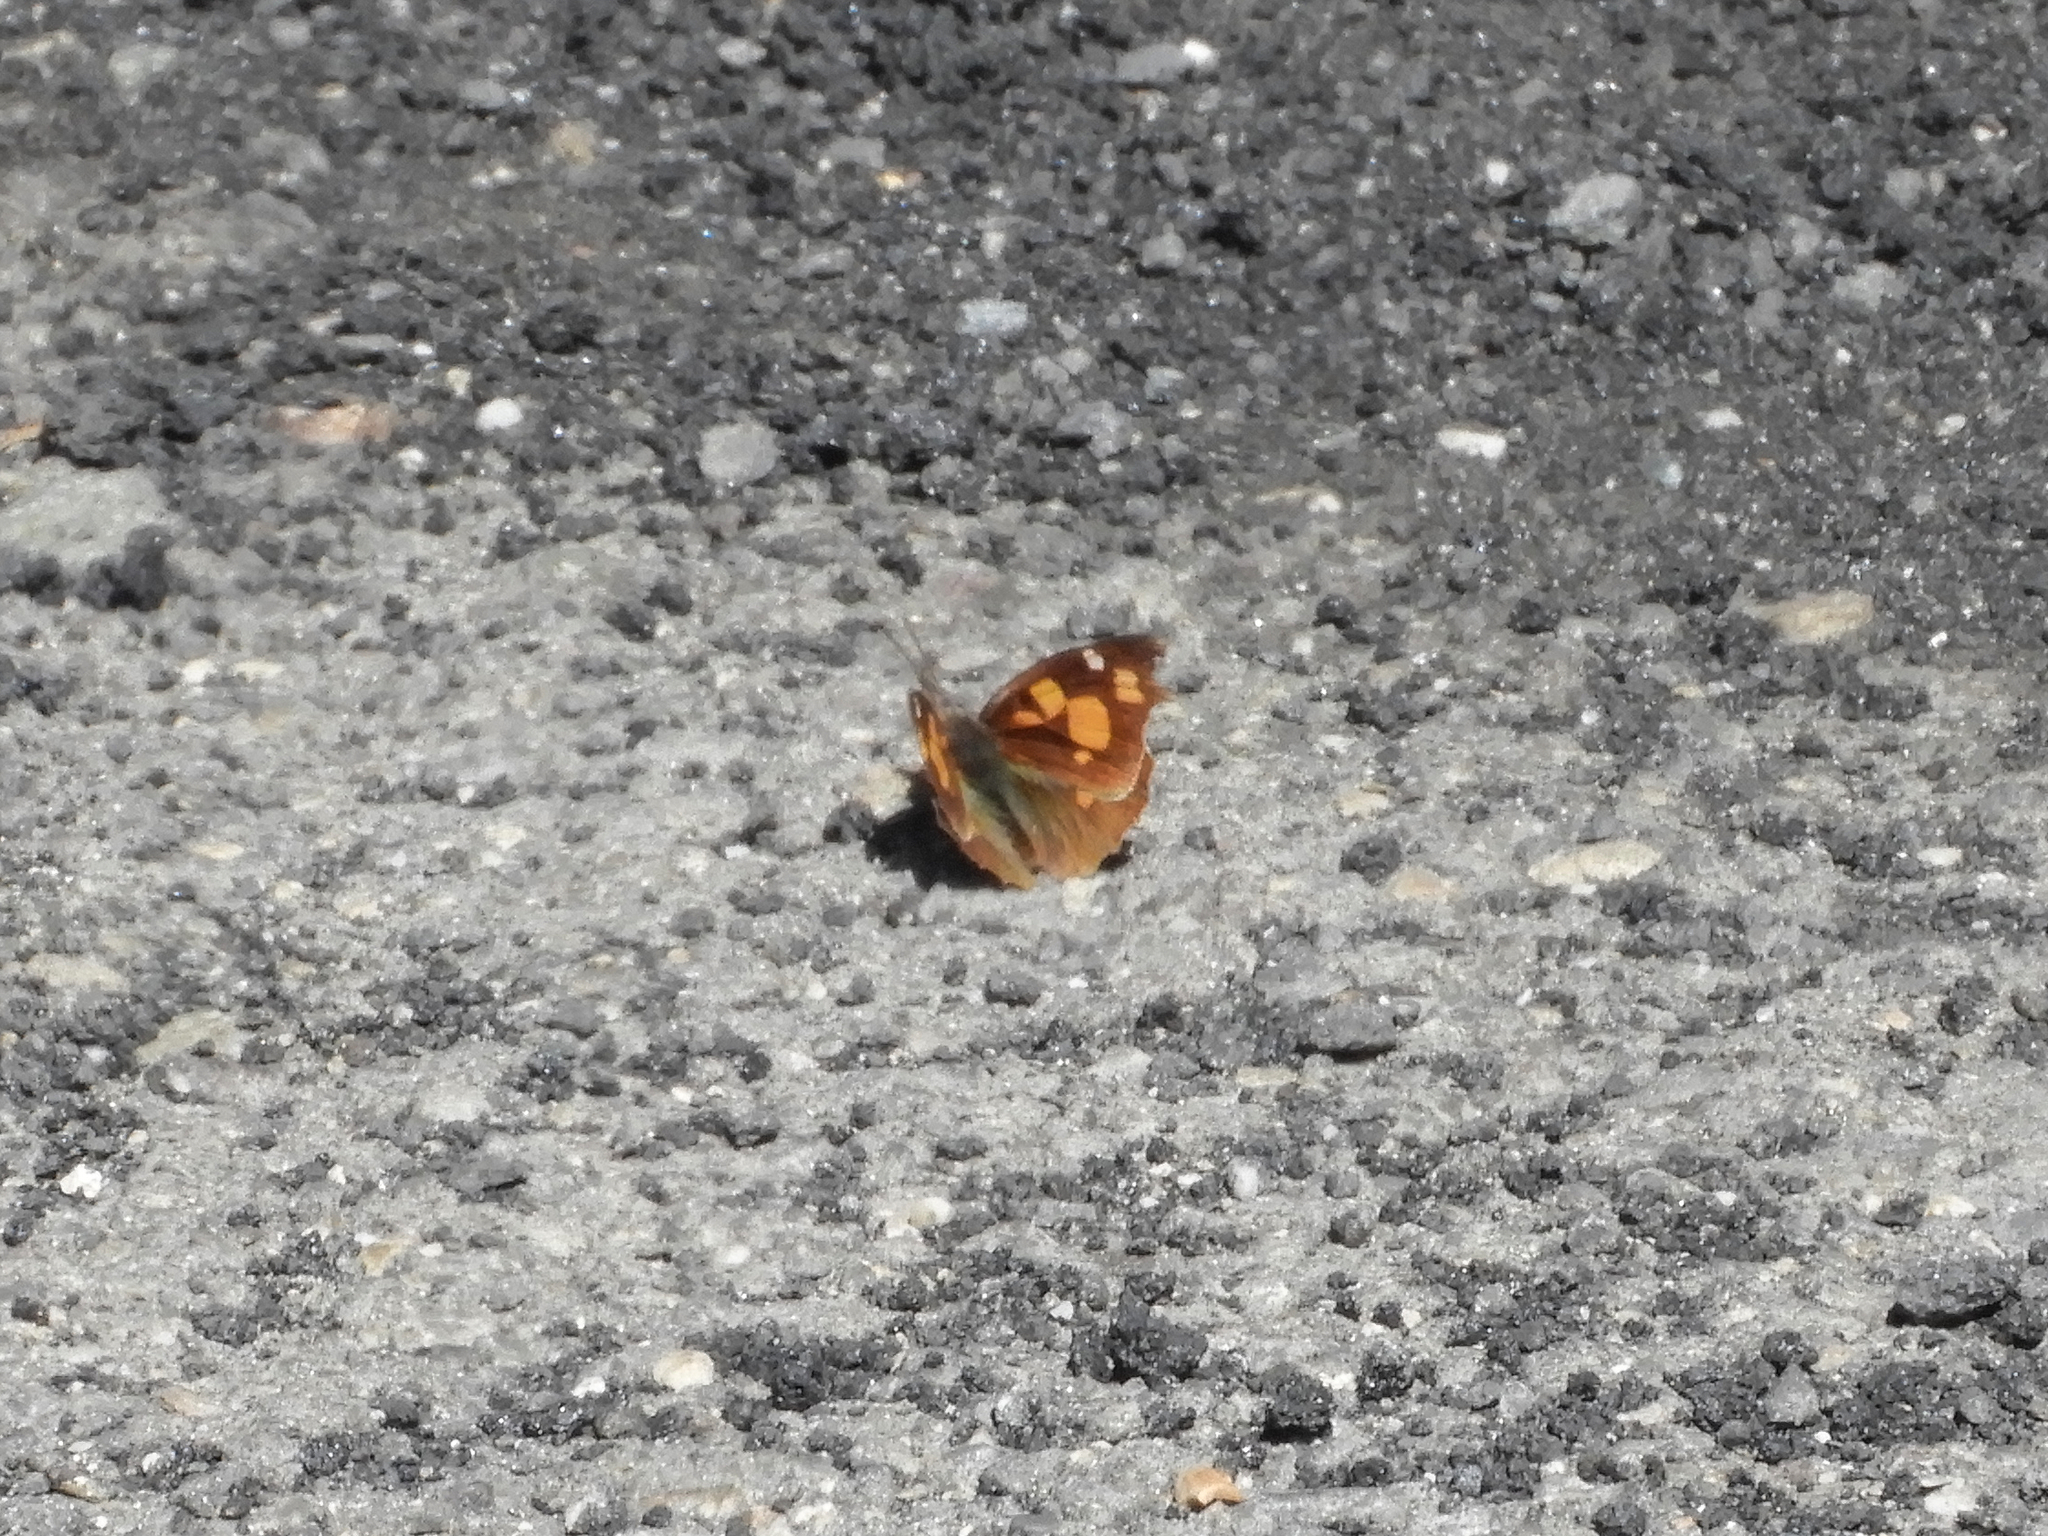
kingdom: Animalia
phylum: Arthropoda
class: Insecta
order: Lepidoptera
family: Nymphalidae
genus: Libythea
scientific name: Libythea celtis
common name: Nettle-tree butterfly
